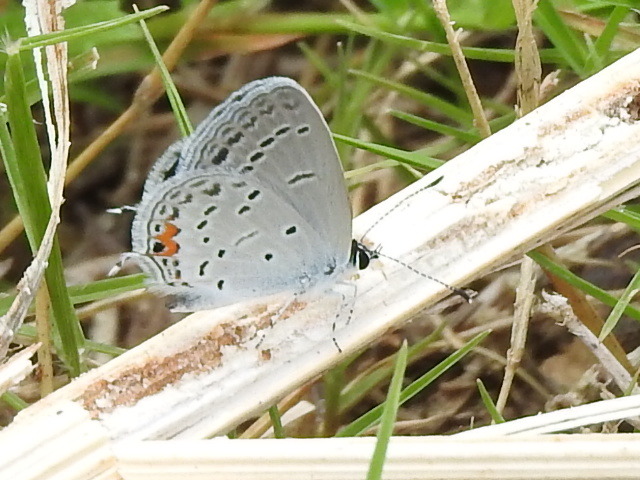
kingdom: Animalia
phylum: Arthropoda
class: Insecta
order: Lepidoptera
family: Lycaenidae
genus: Elkalyce
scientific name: Elkalyce comyntas
